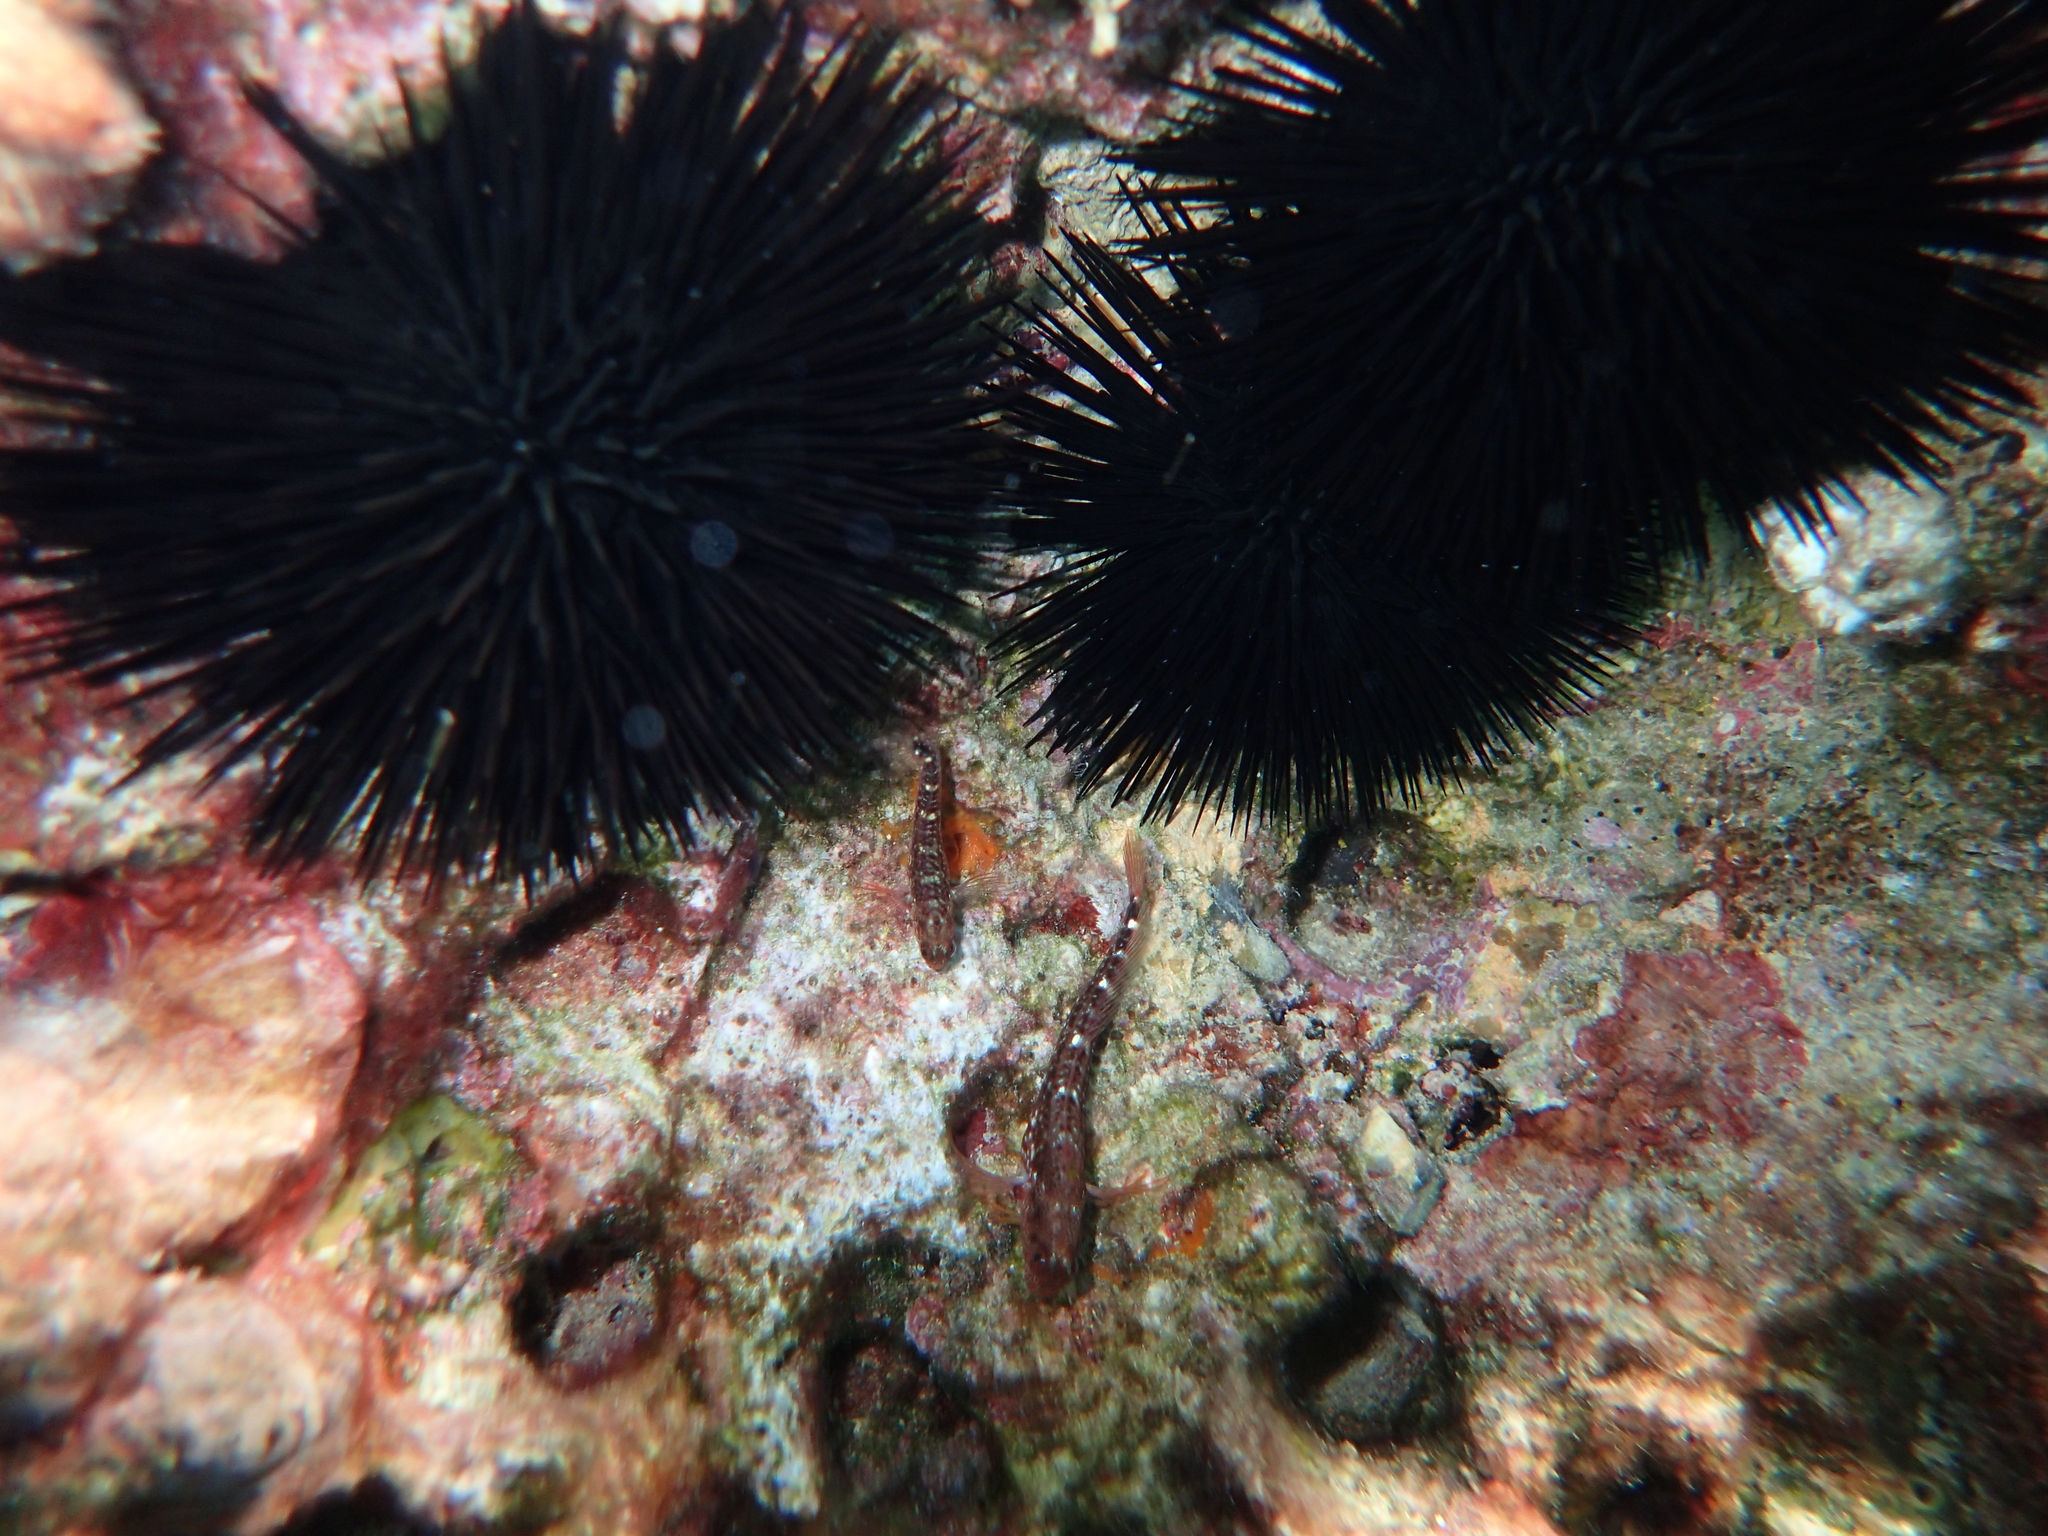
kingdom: Animalia
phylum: Chordata
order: Perciformes
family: Blenniidae
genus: Parablennius
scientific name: Parablennius zvonimiri
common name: Red blenny
